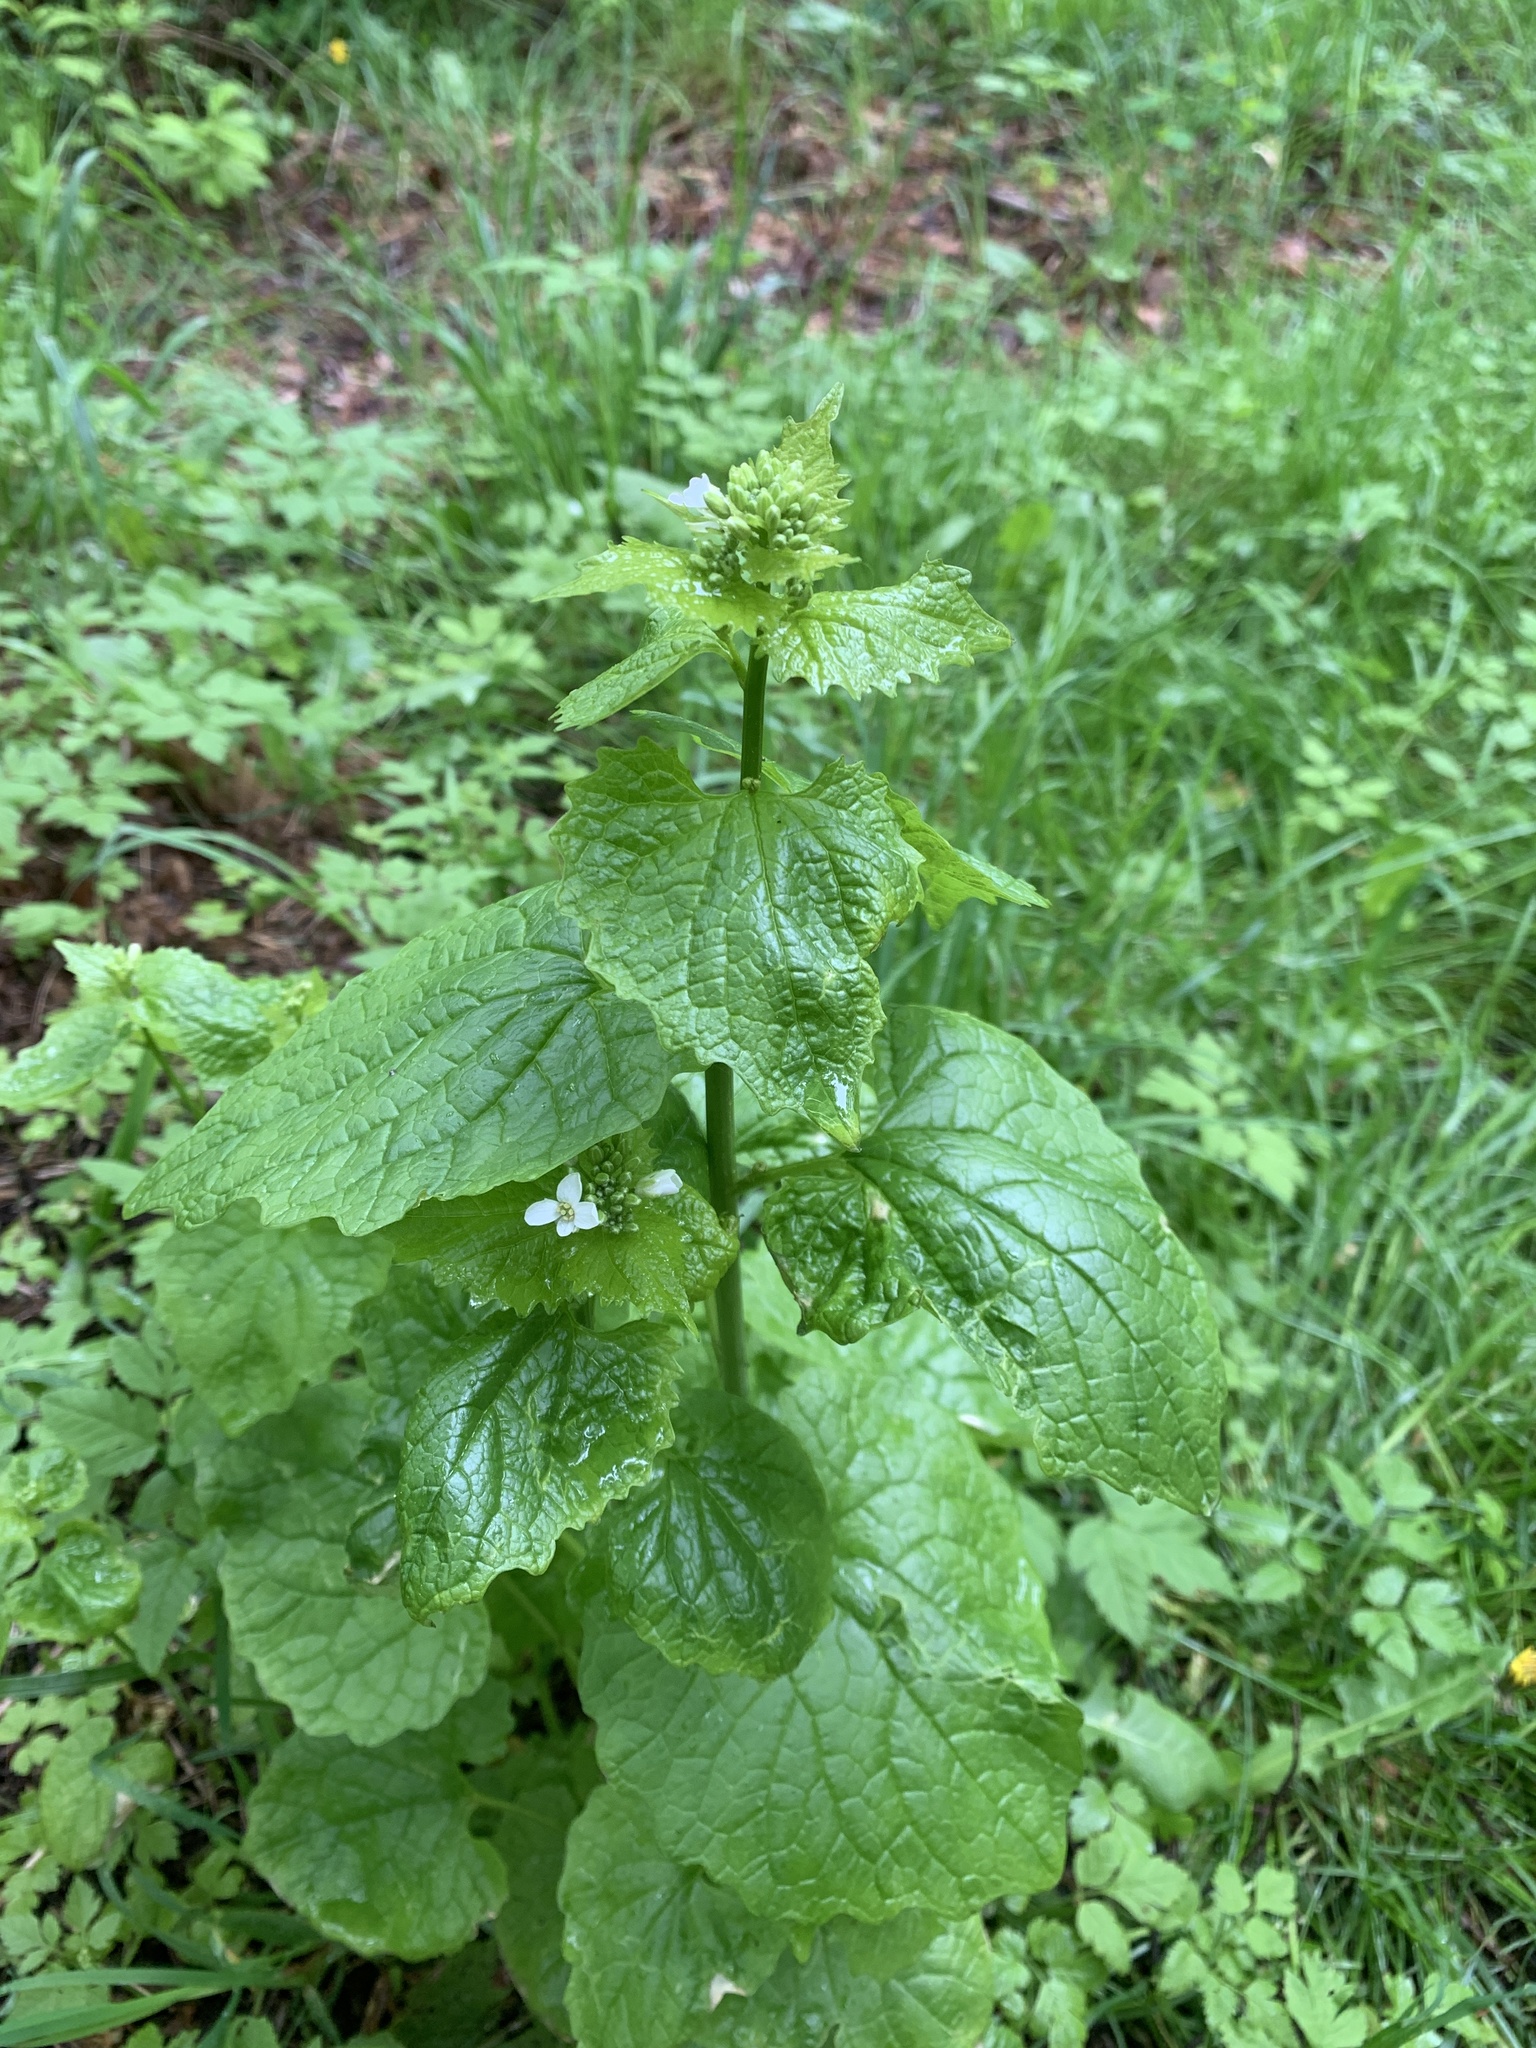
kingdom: Plantae
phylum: Tracheophyta
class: Magnoliopsida
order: Brassicales
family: Brassicaceae
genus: Alliaria
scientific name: Alliaria petiolata
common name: Garlic mustard
